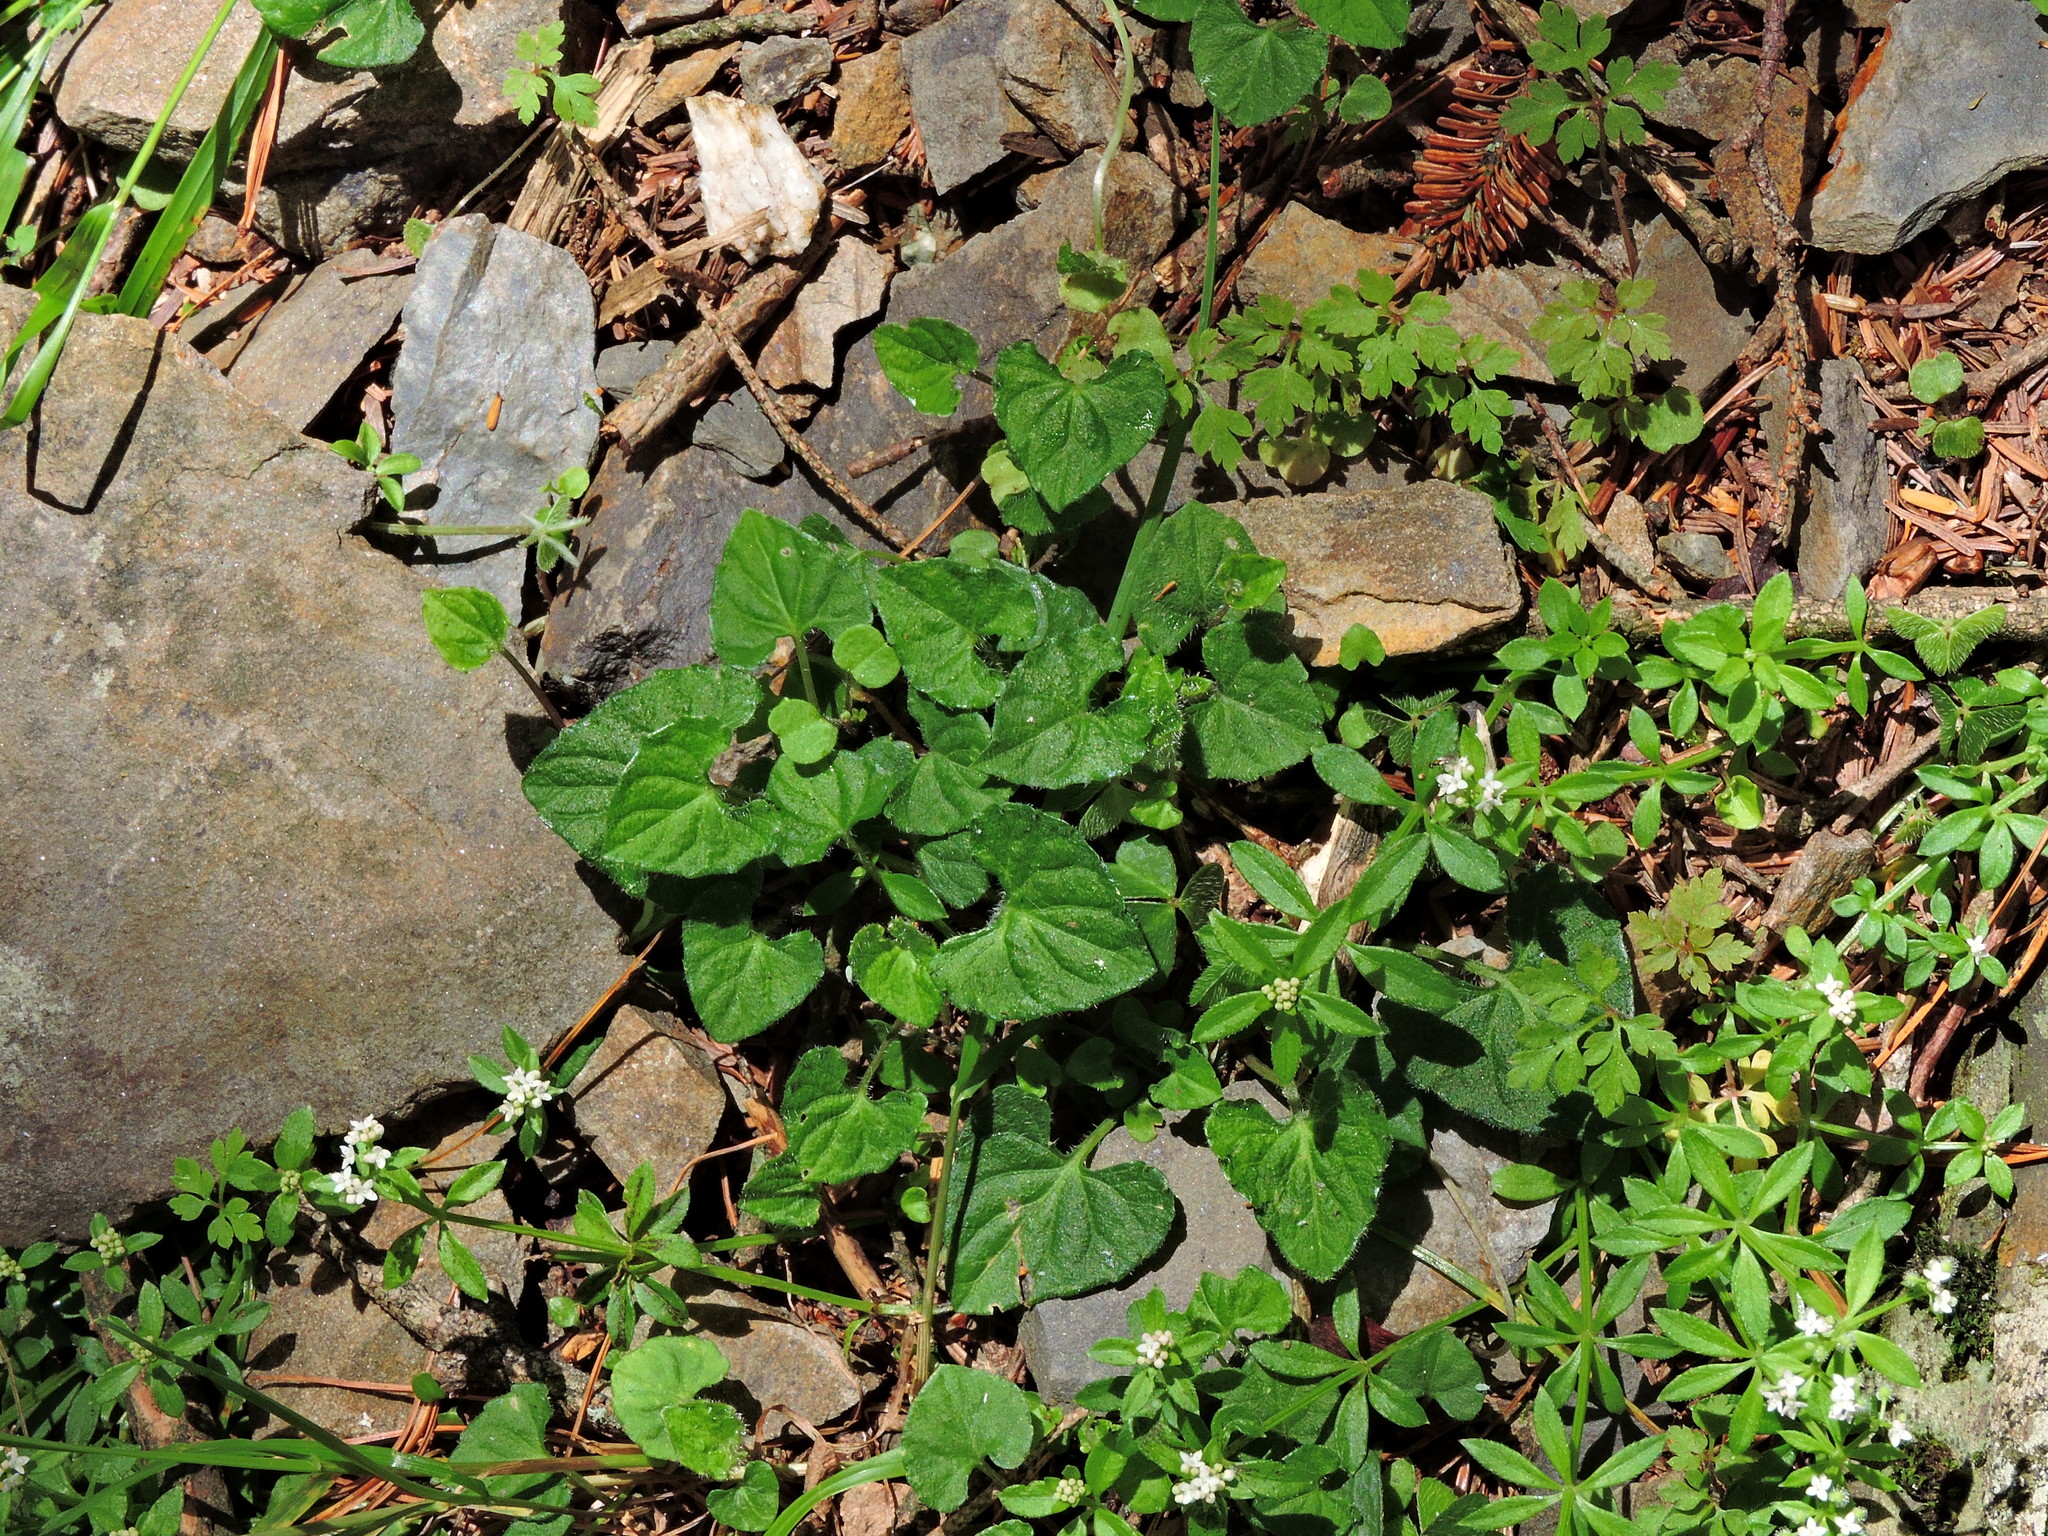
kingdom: Plantae
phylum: Tracheophyta
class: Magnoliopsida
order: Malpighiales
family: Violaceae
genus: Viola
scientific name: Viola senzanensis
